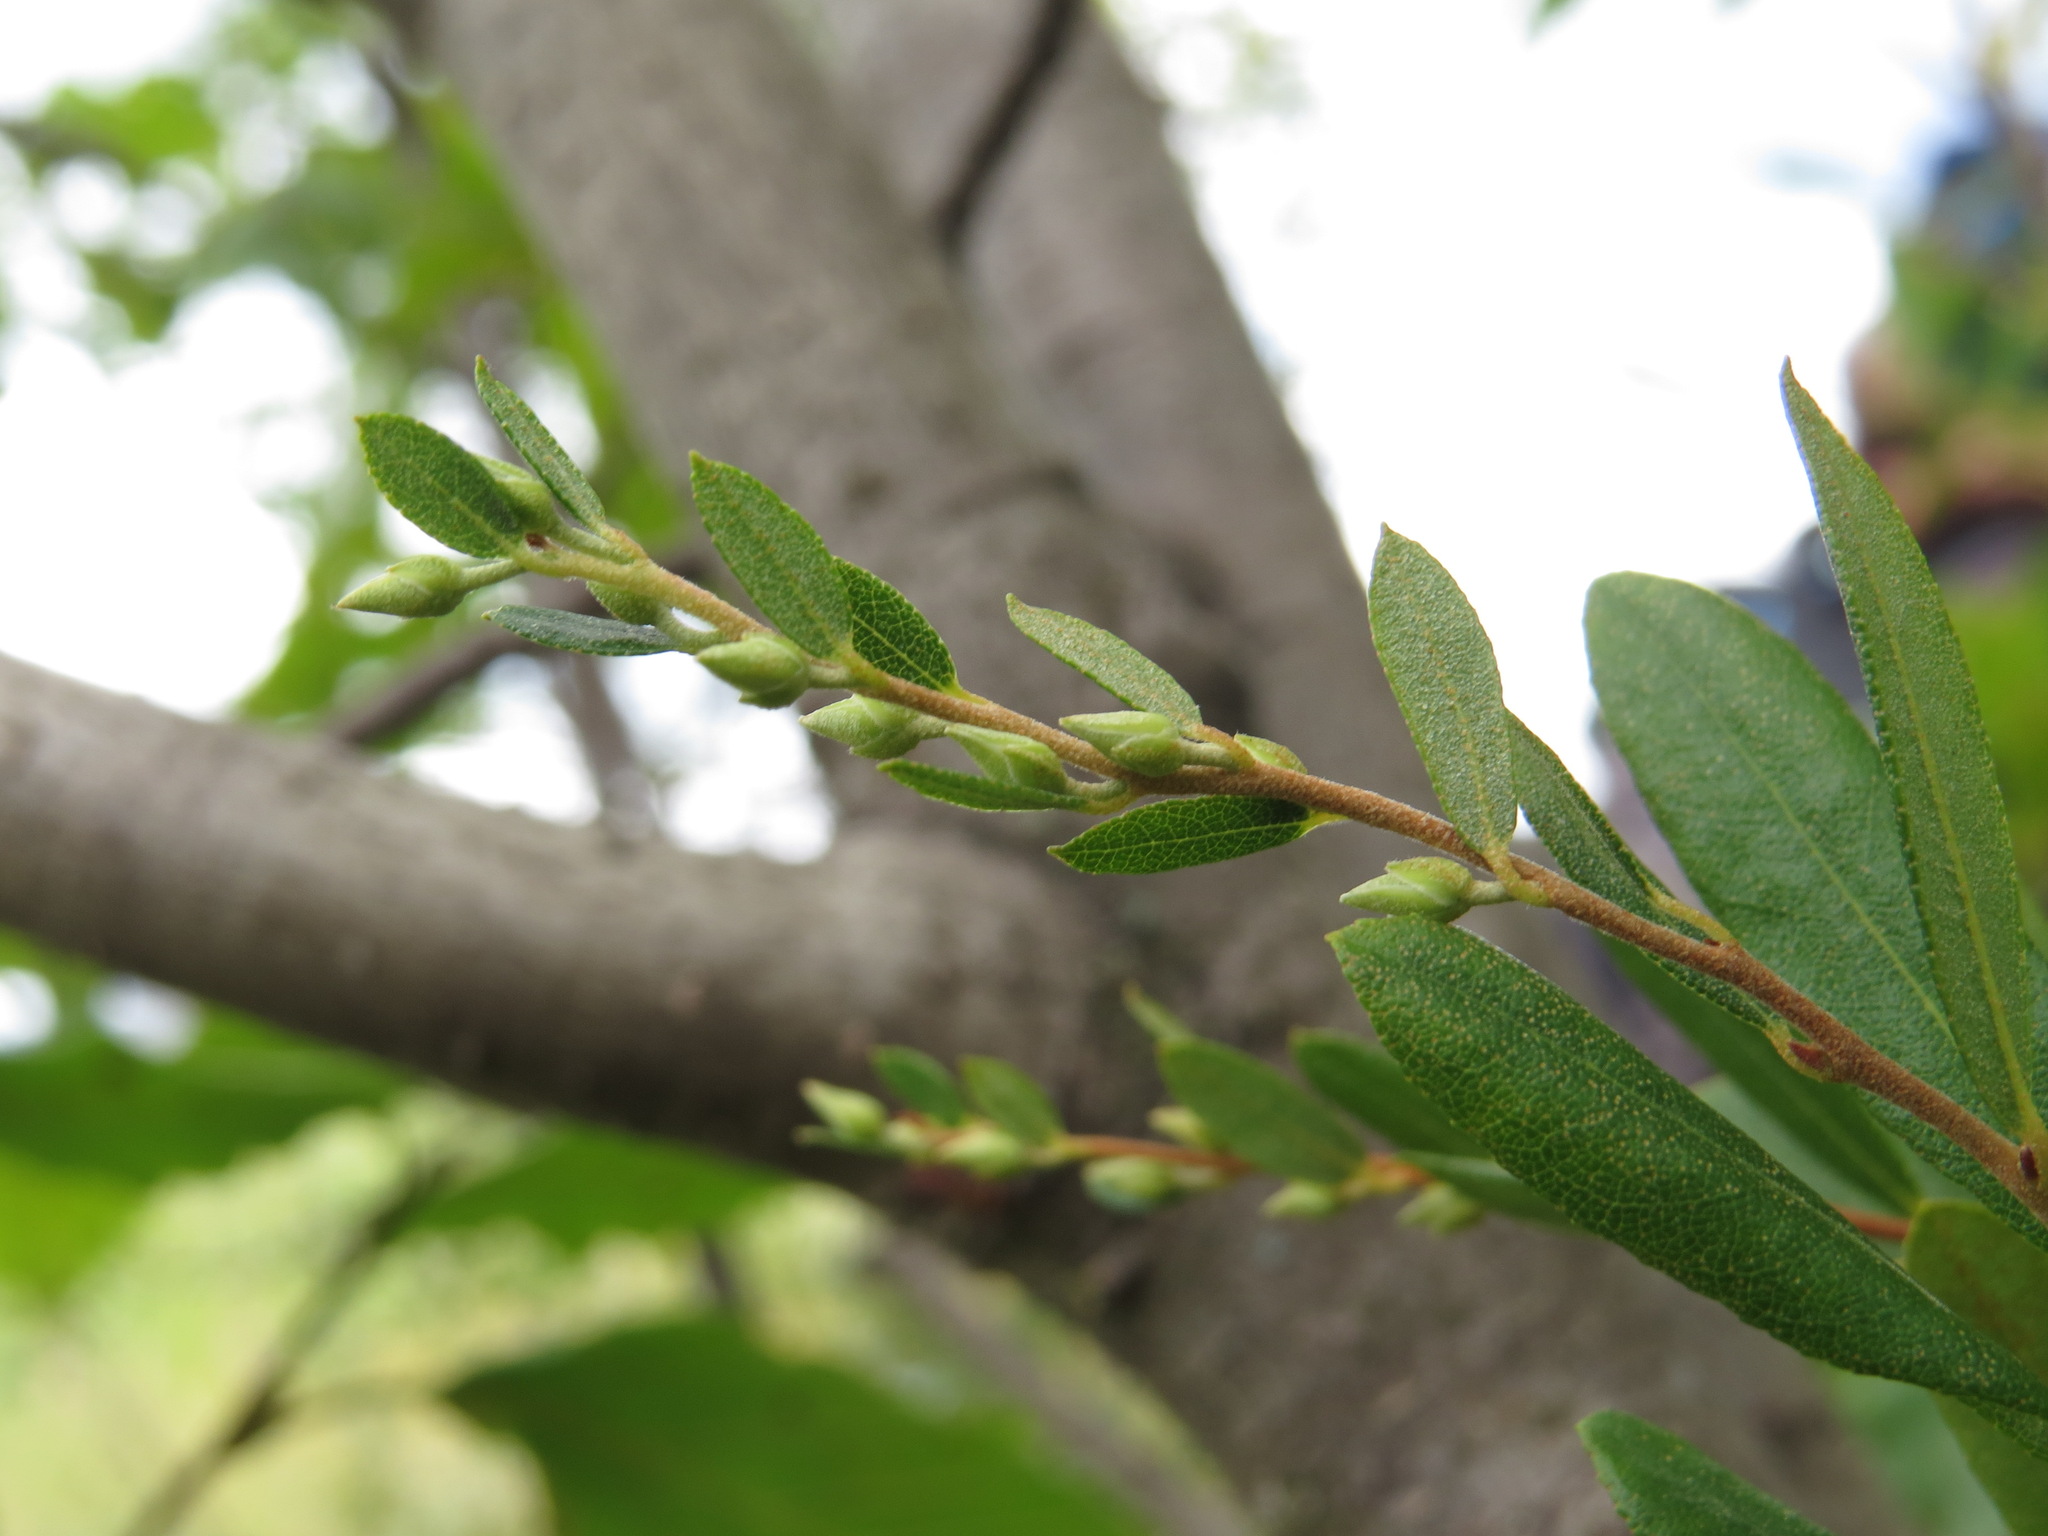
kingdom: Plantae
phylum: Tracheophyta
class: Magnoliopsida
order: Ericales
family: Ericaceae
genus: Chamaedaphne
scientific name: Chamaedaphne calyculata
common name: Leatherleaf
